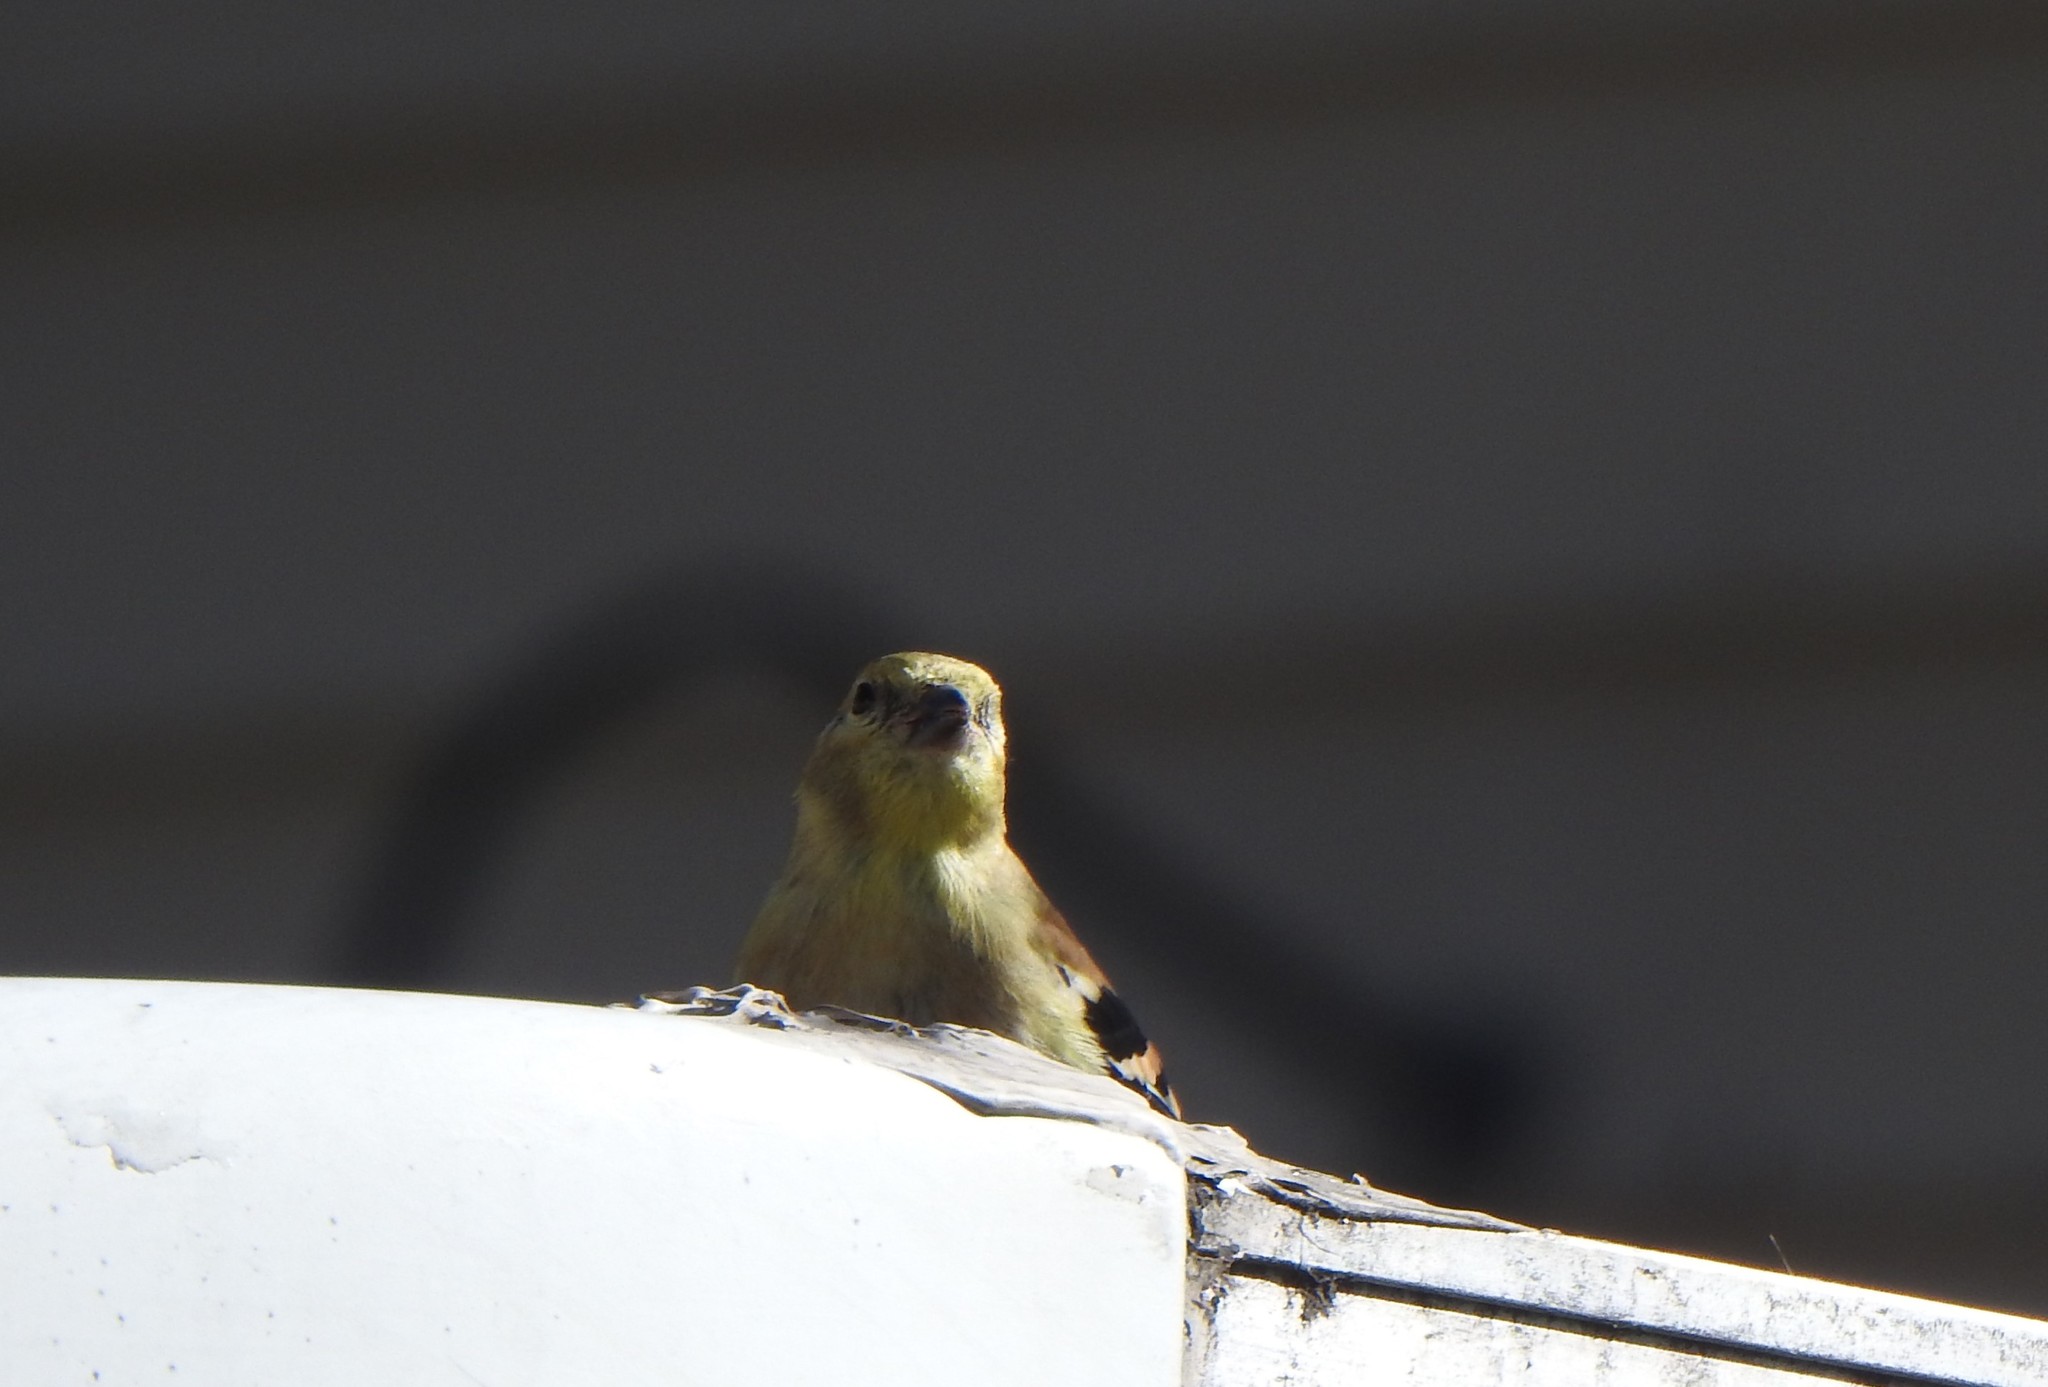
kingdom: Animalia
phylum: Chordata
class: Aves
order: Passeriformes
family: Fringillidae
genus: Spinus
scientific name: Spinus tristis
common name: American goldfinch
